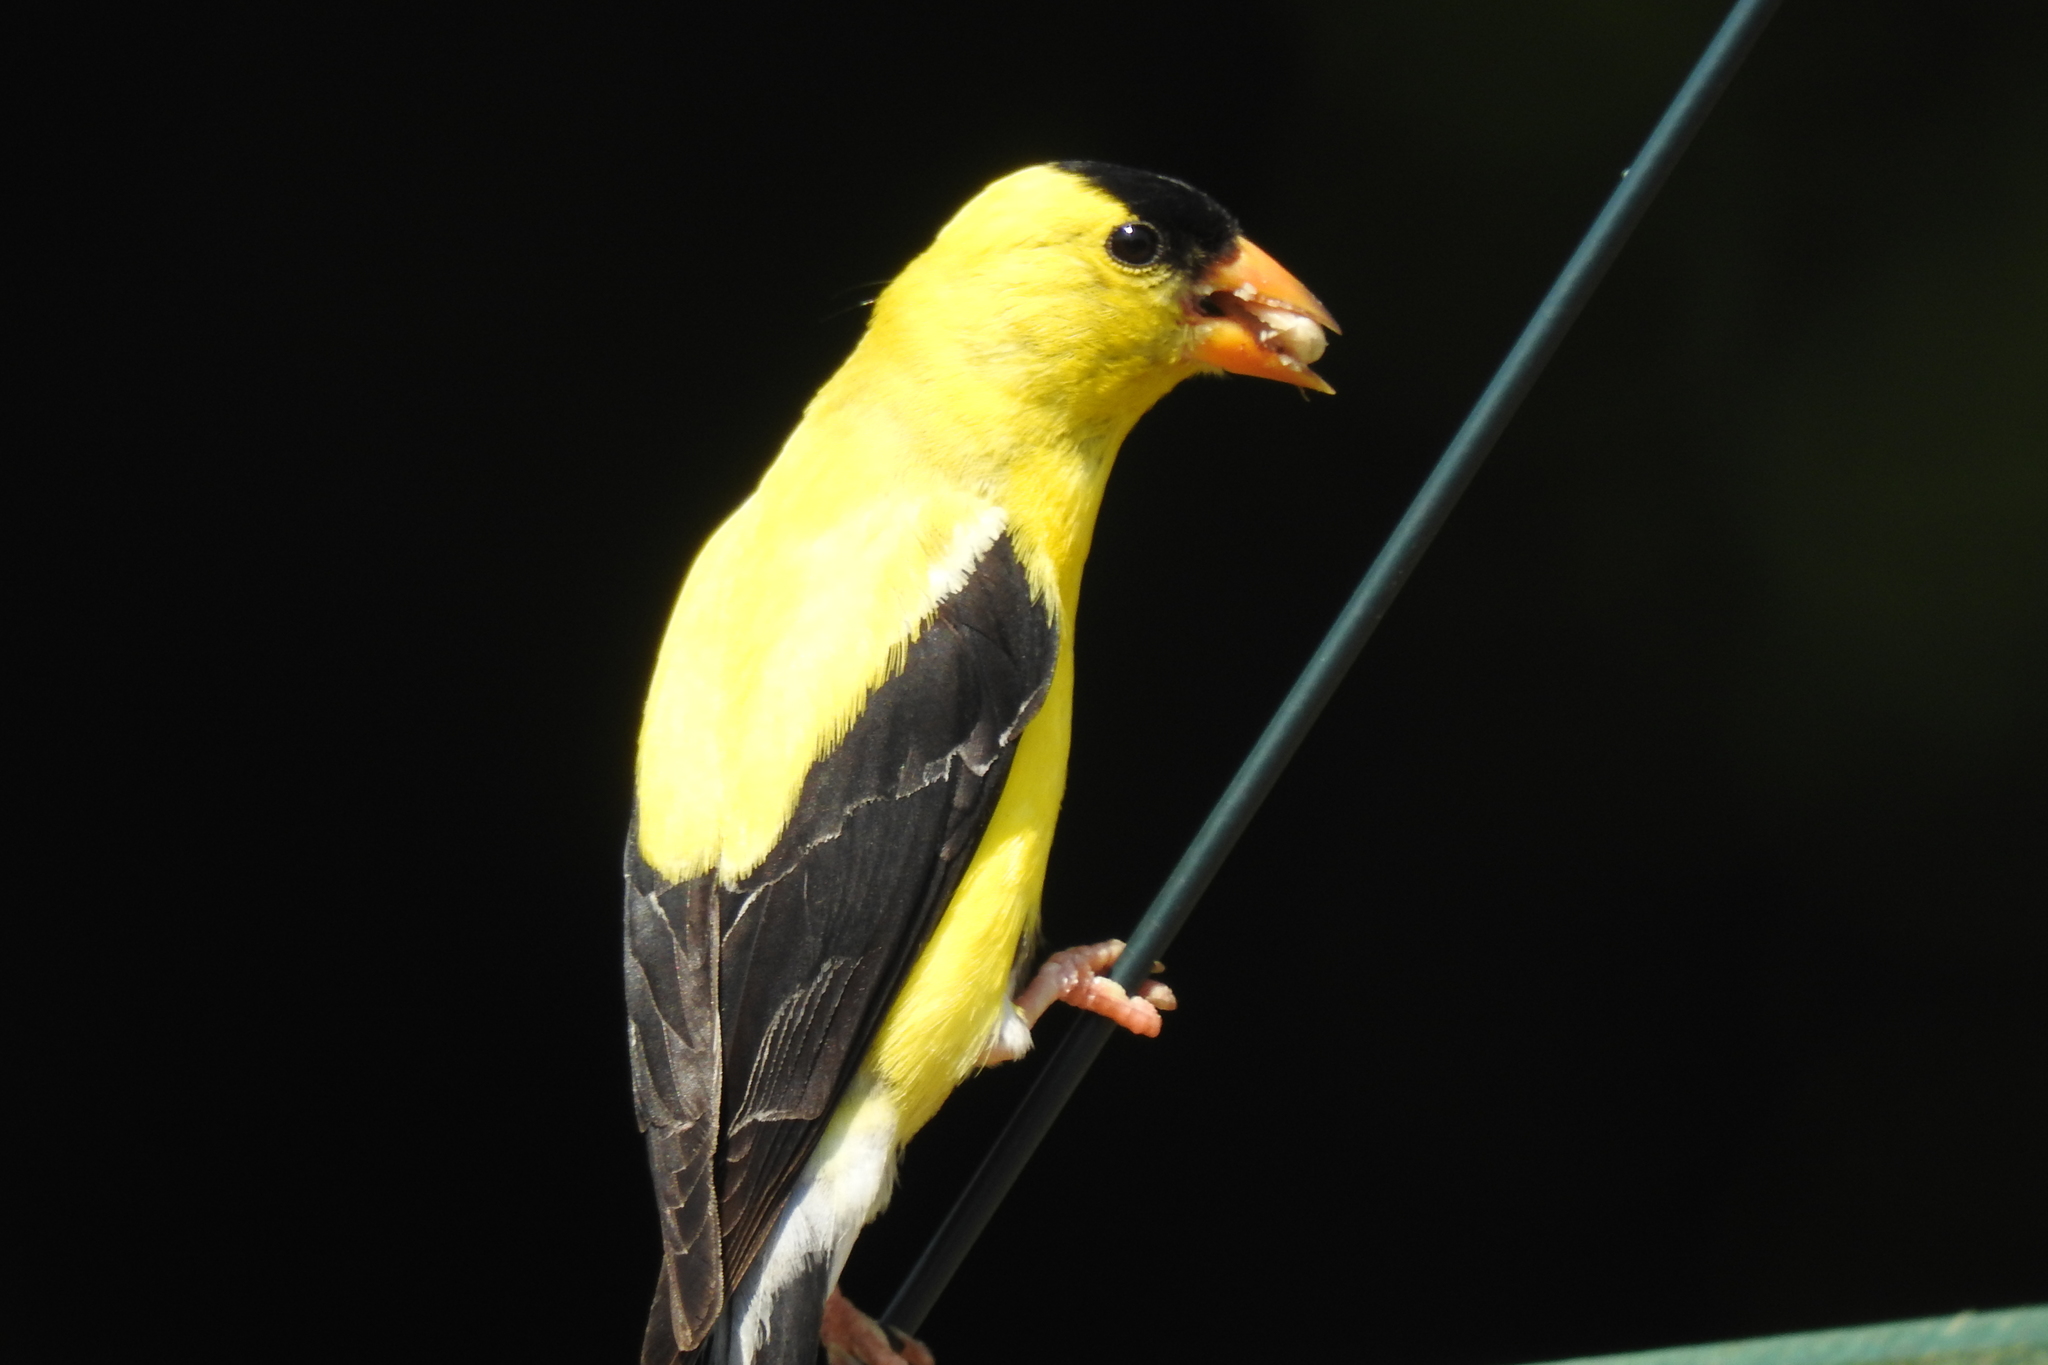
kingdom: Animalia
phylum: Chordata
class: Aves
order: Passeriformes
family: Fringillidae
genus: Spinus
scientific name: Spinus tristis
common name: American goldfinch
